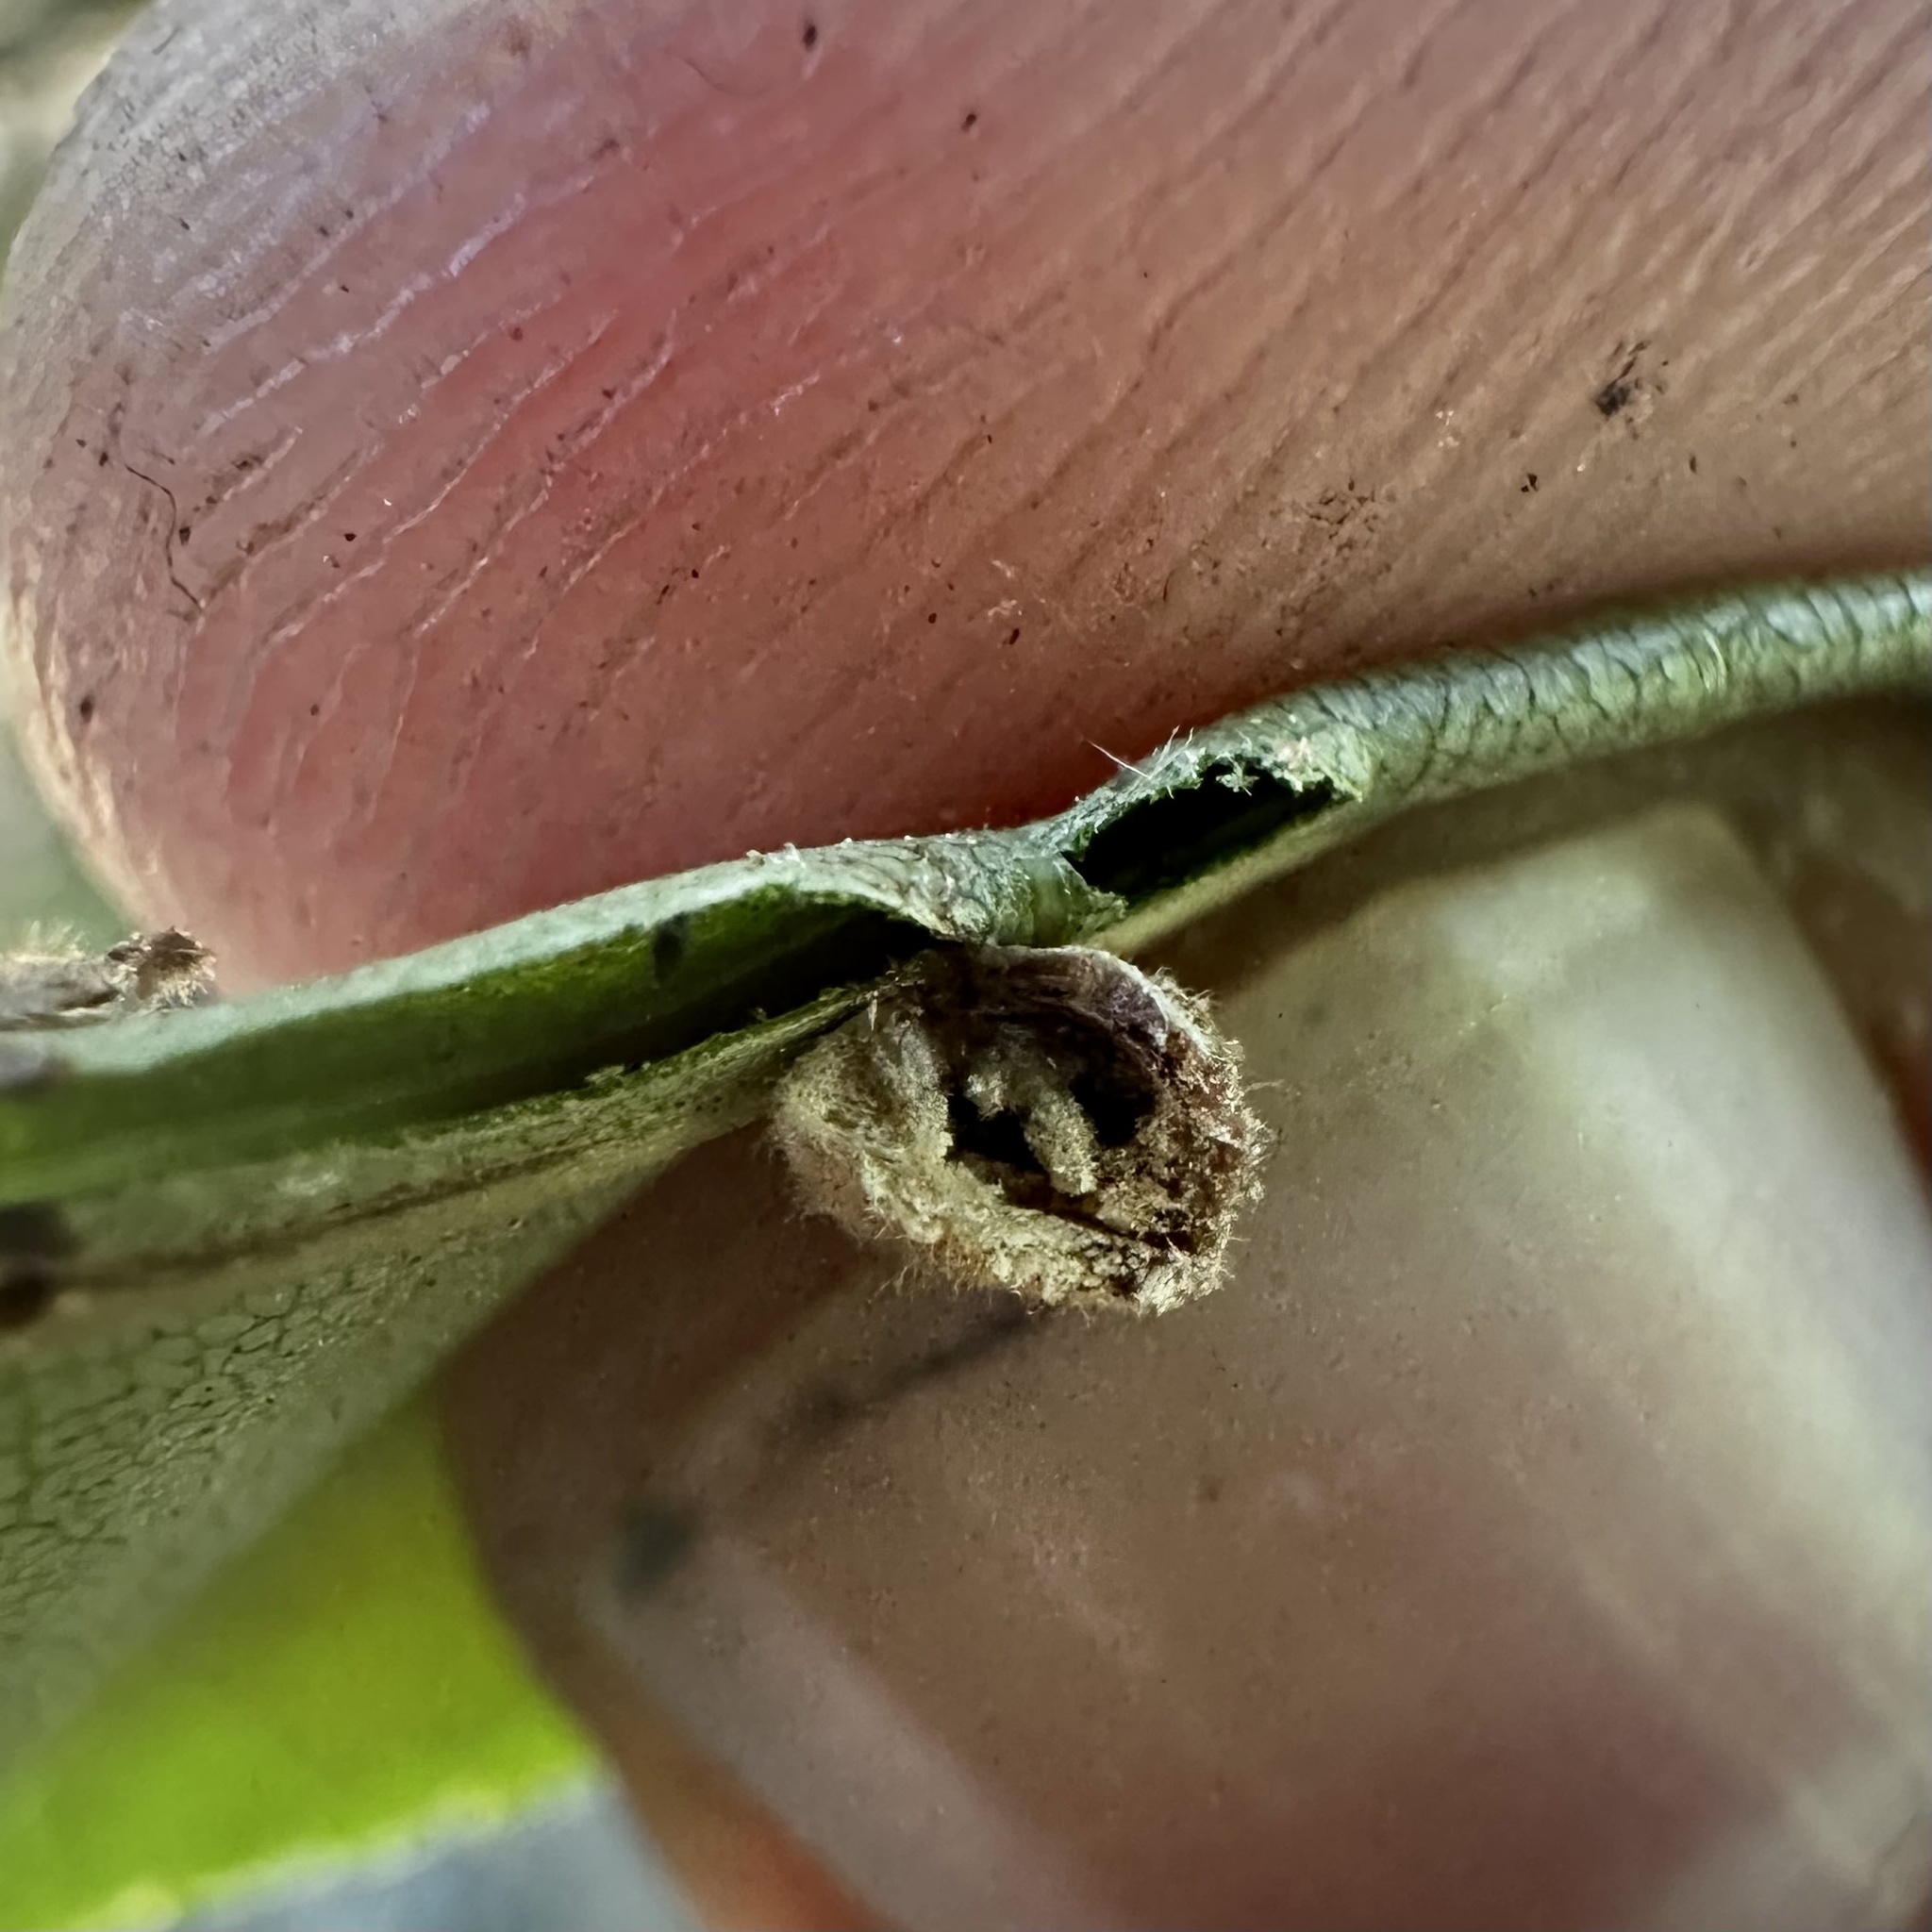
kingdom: Animalia
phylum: Arthropoda
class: Insecta
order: Diptera
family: Cecidomyiidae
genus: Caryomyia
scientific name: Caryomyia persicoides
